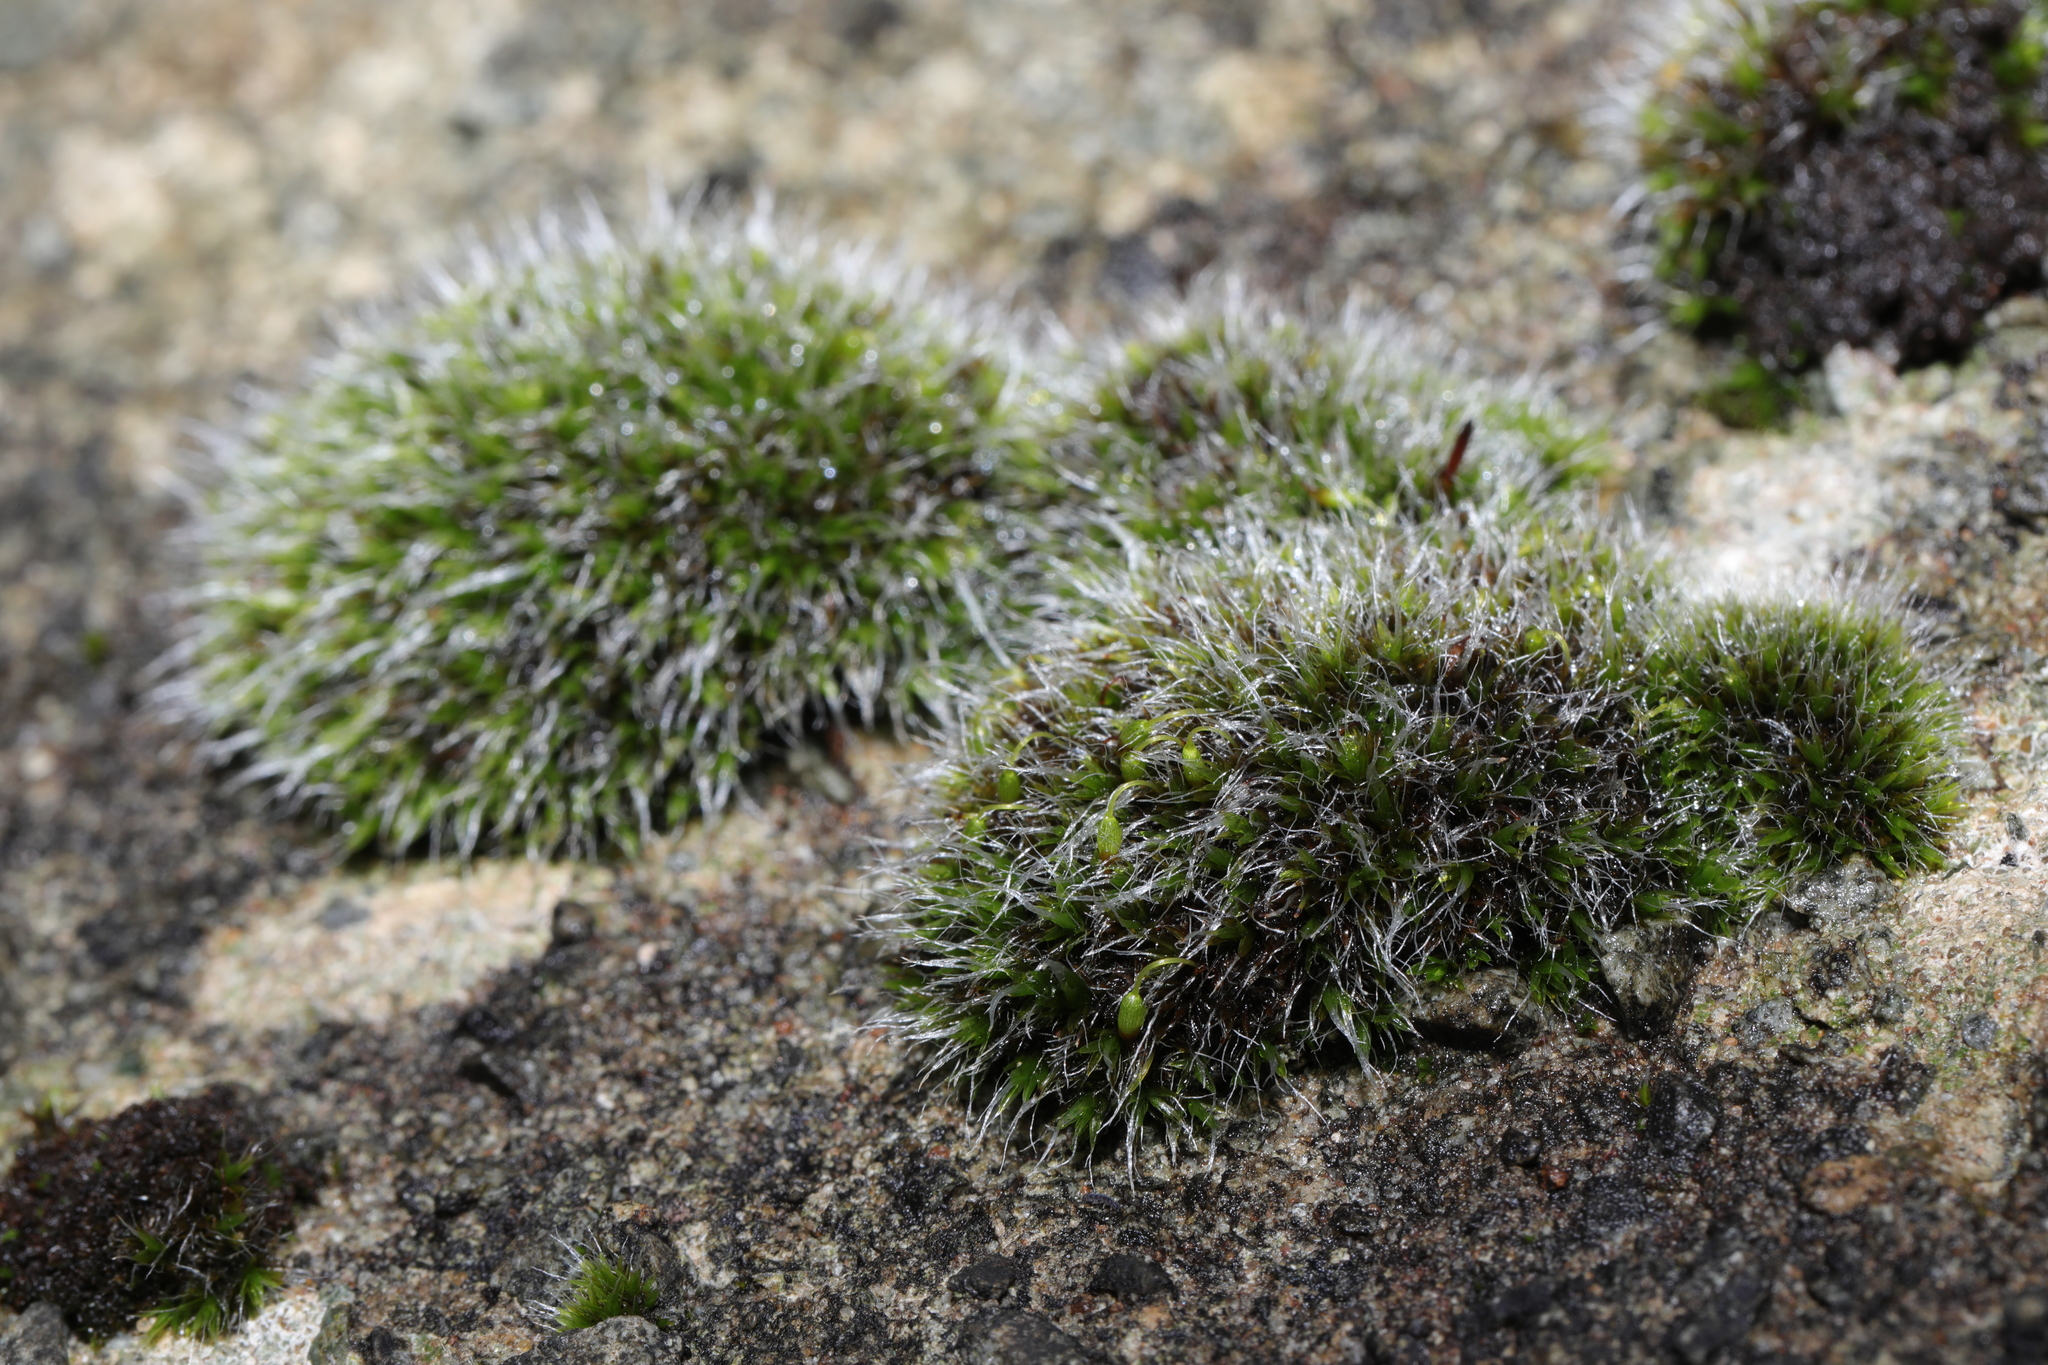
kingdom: Plantae
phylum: Bryophyta
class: Bryopsida
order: Grimmiales
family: Grimmiaceae
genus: Grimmia
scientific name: Grimmia pulvinata
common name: Grey-cushioned grimmia
